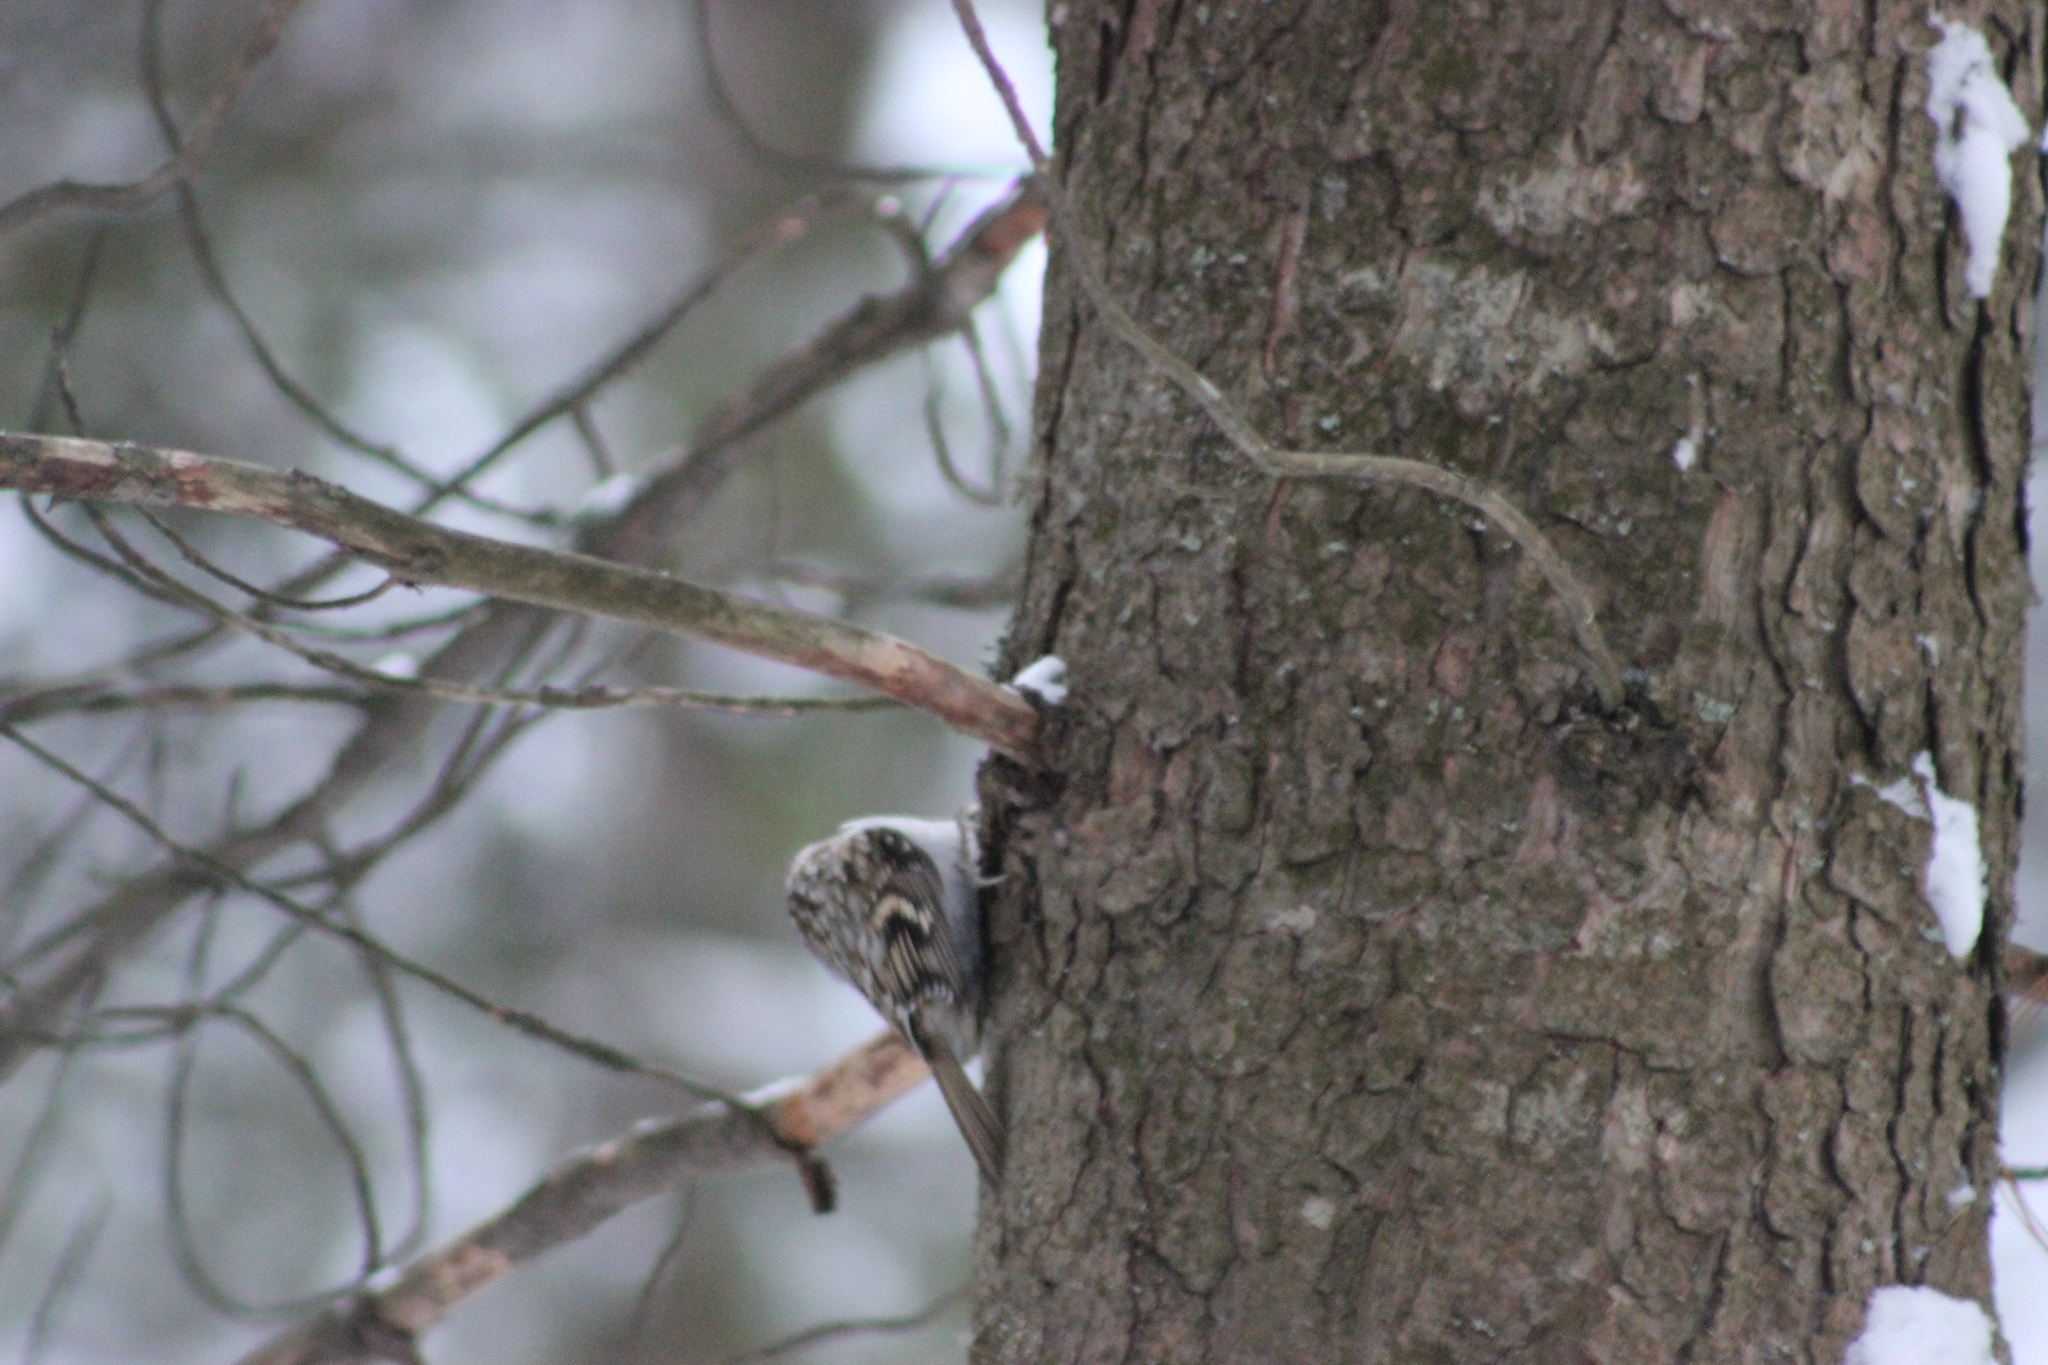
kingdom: Animalia
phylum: Chordata
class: Aves
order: Passeriformes
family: Certhiidae
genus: Certhia
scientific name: Certhia familiaris
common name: Eurasian treecreeper
